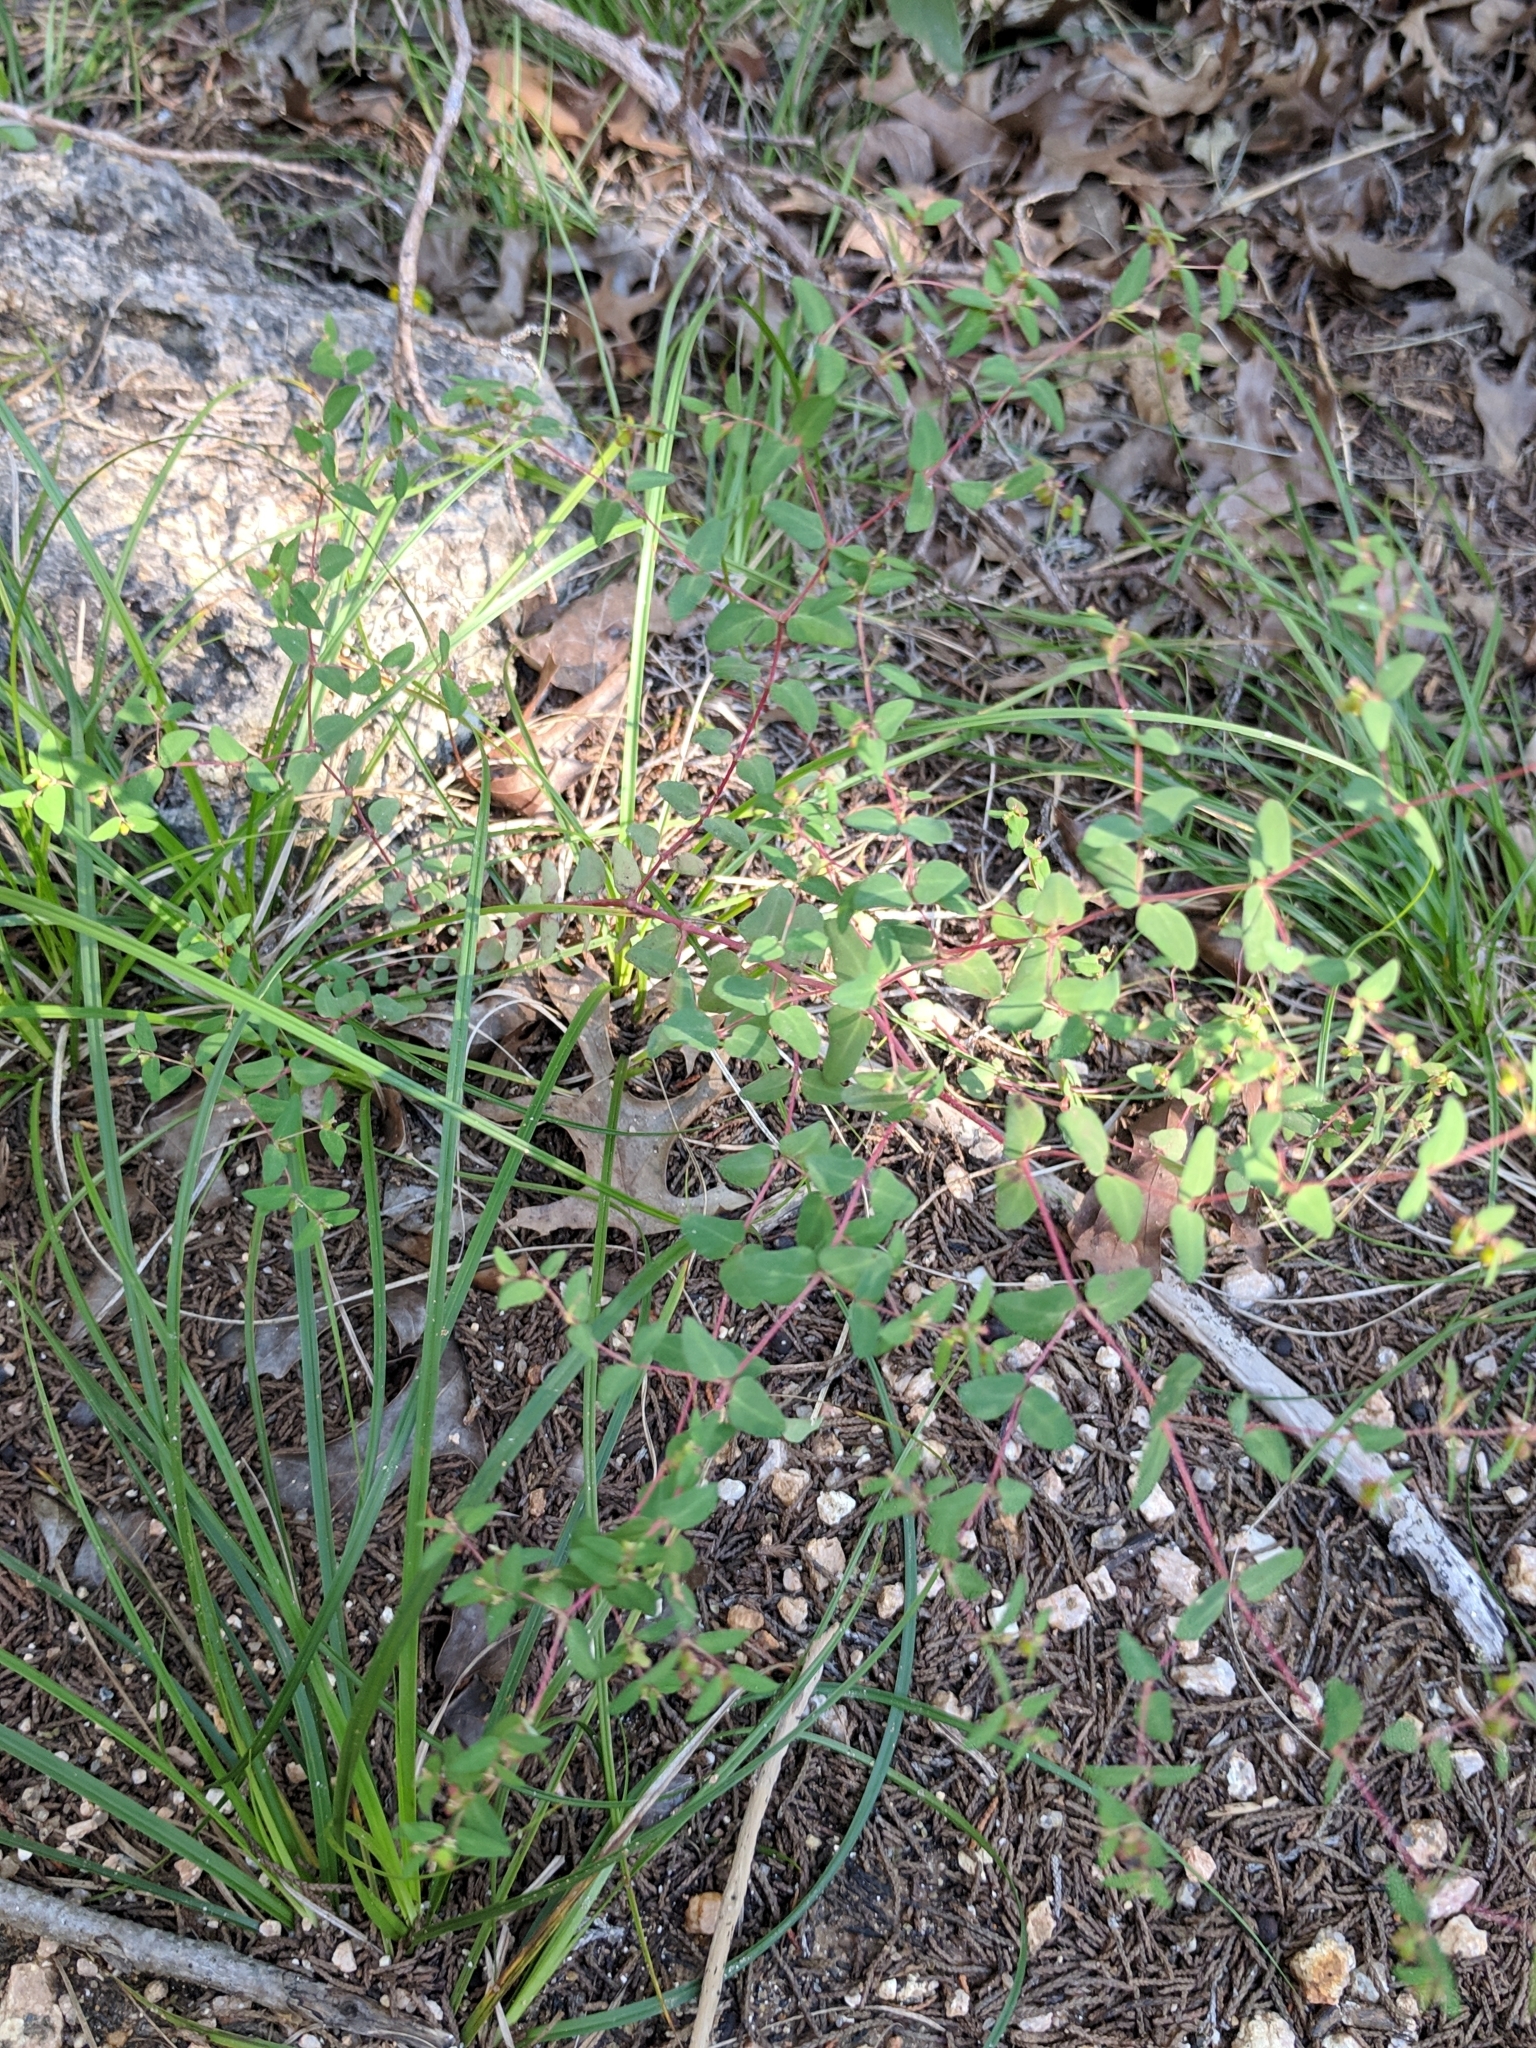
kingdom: Plantae
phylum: Tracheophyta
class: Magnoliopsida
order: Malpighiales
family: Euphorbiaceae
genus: Euphorbia
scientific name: Euphorbia villifera
